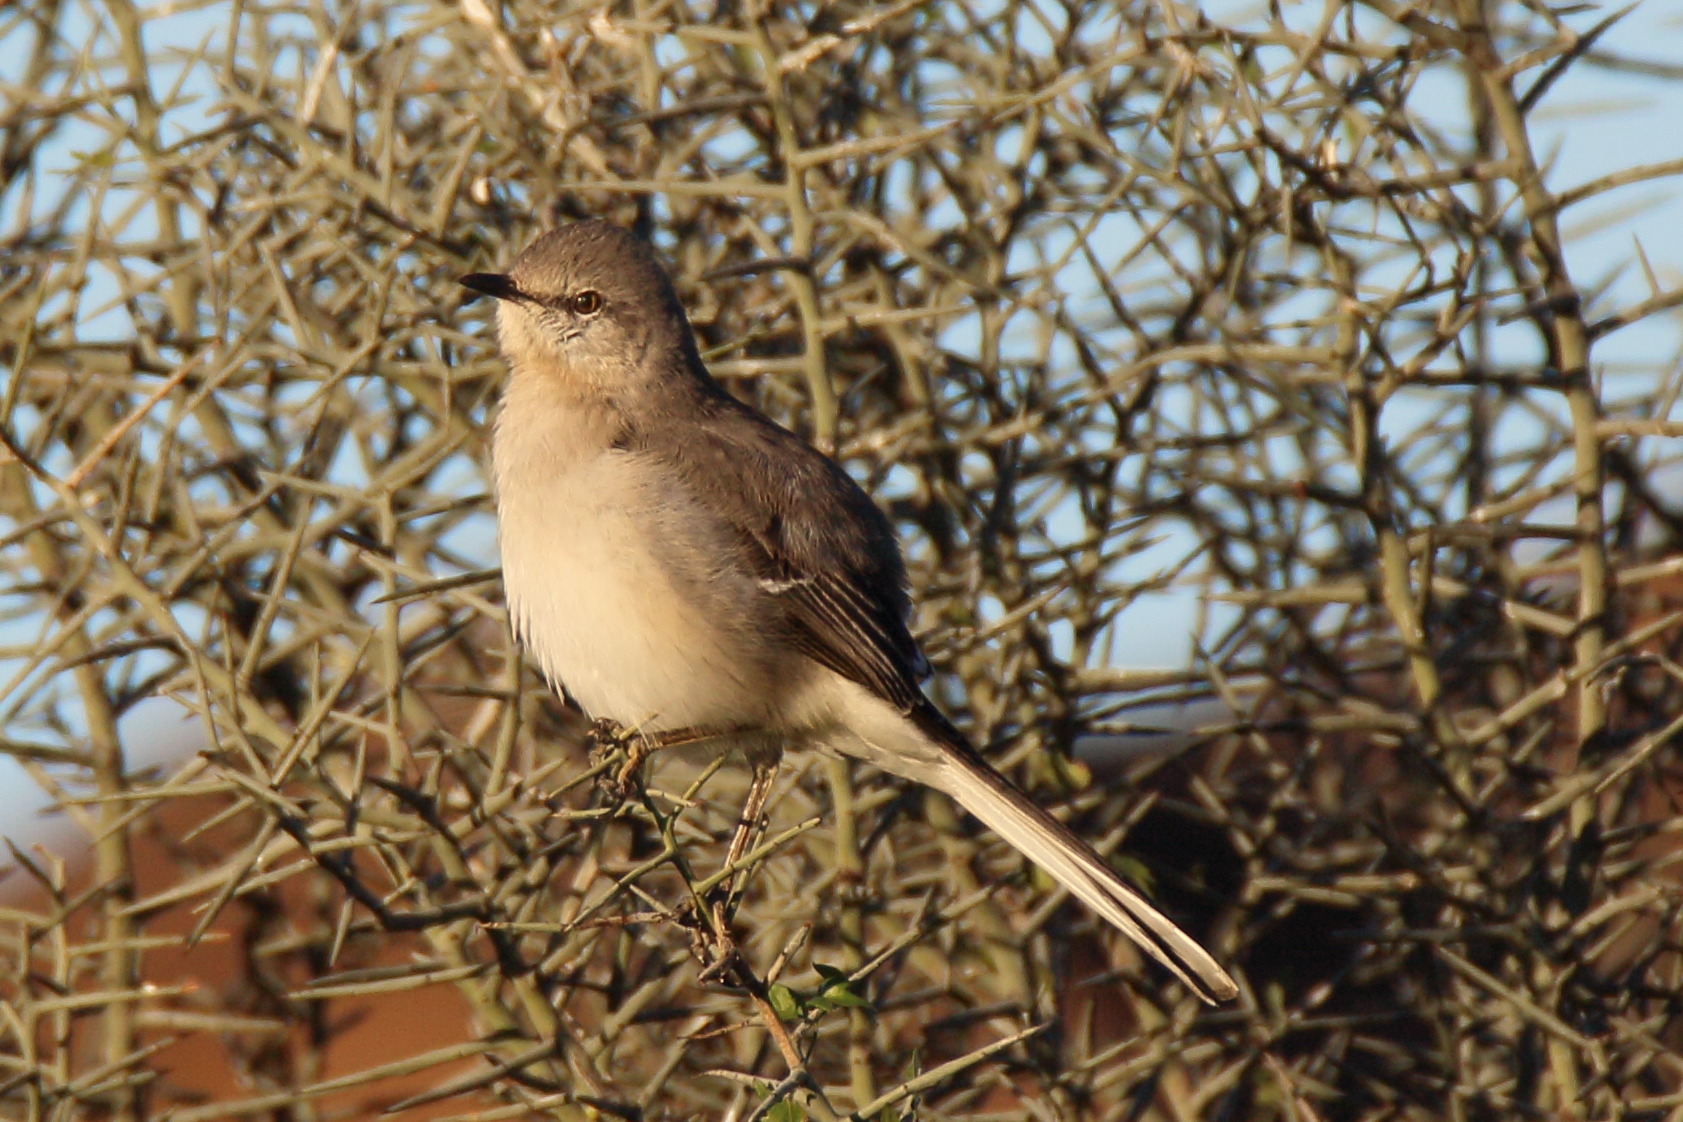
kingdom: Animalia
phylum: Chordata
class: Aves
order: Passeriformes
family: Mimidae
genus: Mimus
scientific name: Mimus polyglottos
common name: Northern mockingbird
